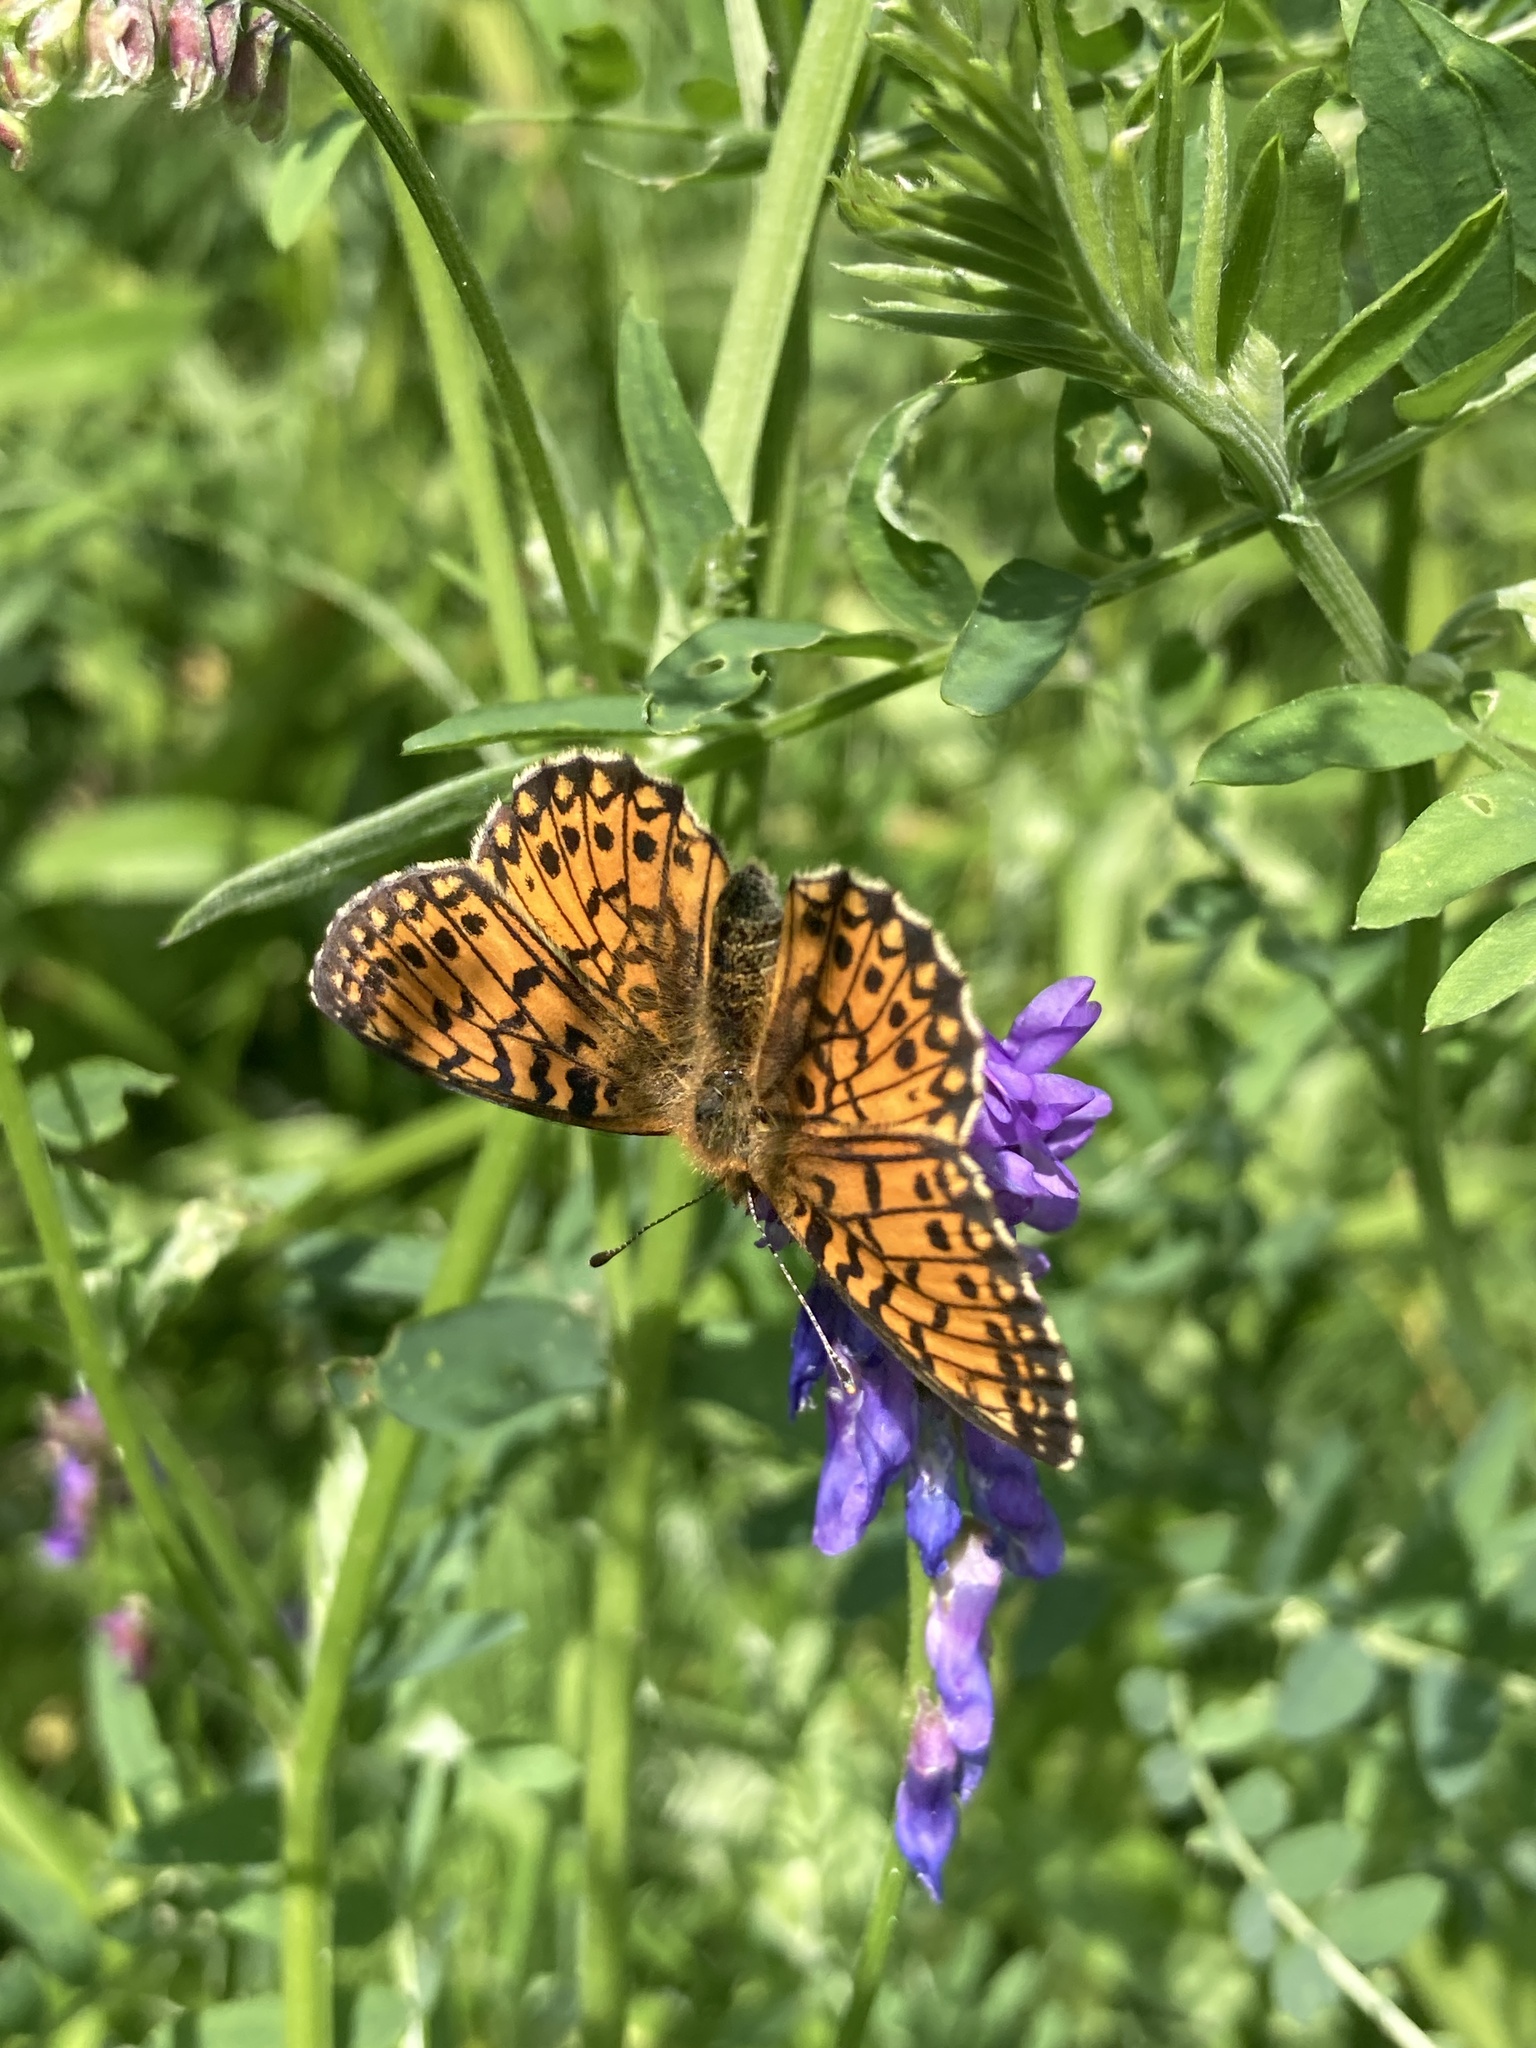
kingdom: Animalia
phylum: Arthropoda
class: Insecta
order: Lepidoptera
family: Nymphalidae
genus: Boloria
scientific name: Boloria selene
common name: Small pearl-bordered fritillary
